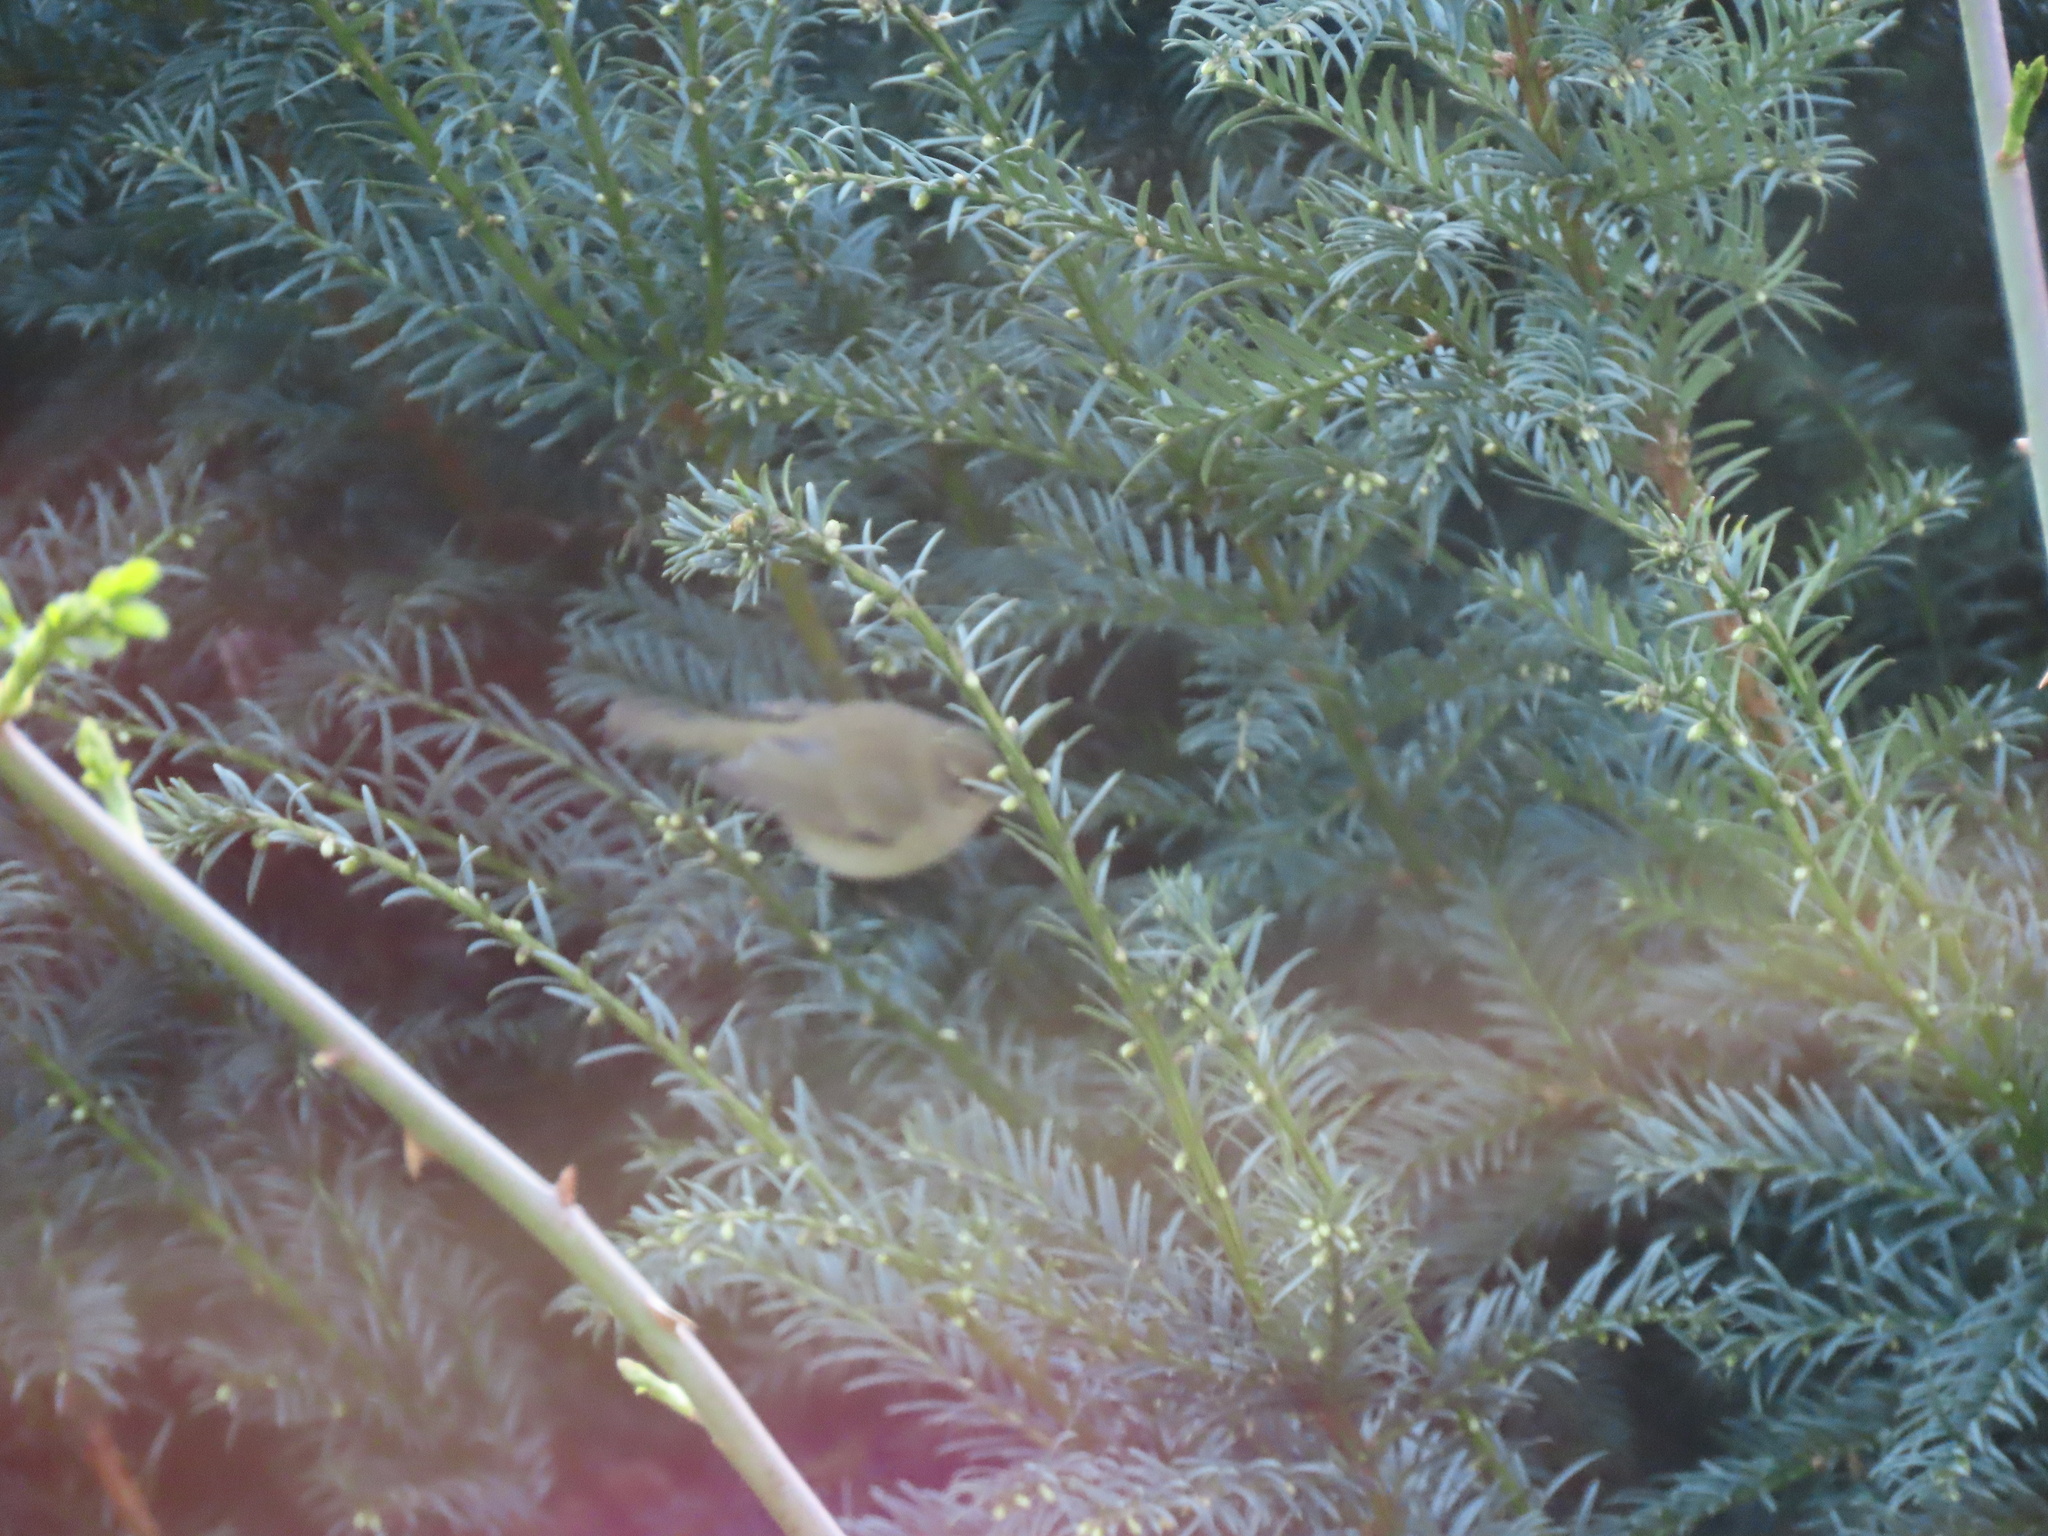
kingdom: Animalia
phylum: Chordata
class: Aves
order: Passeriformes
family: Phylloscopidae
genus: Phylloscopus
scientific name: Phylloscopus collybita
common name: Common chiffchaff
